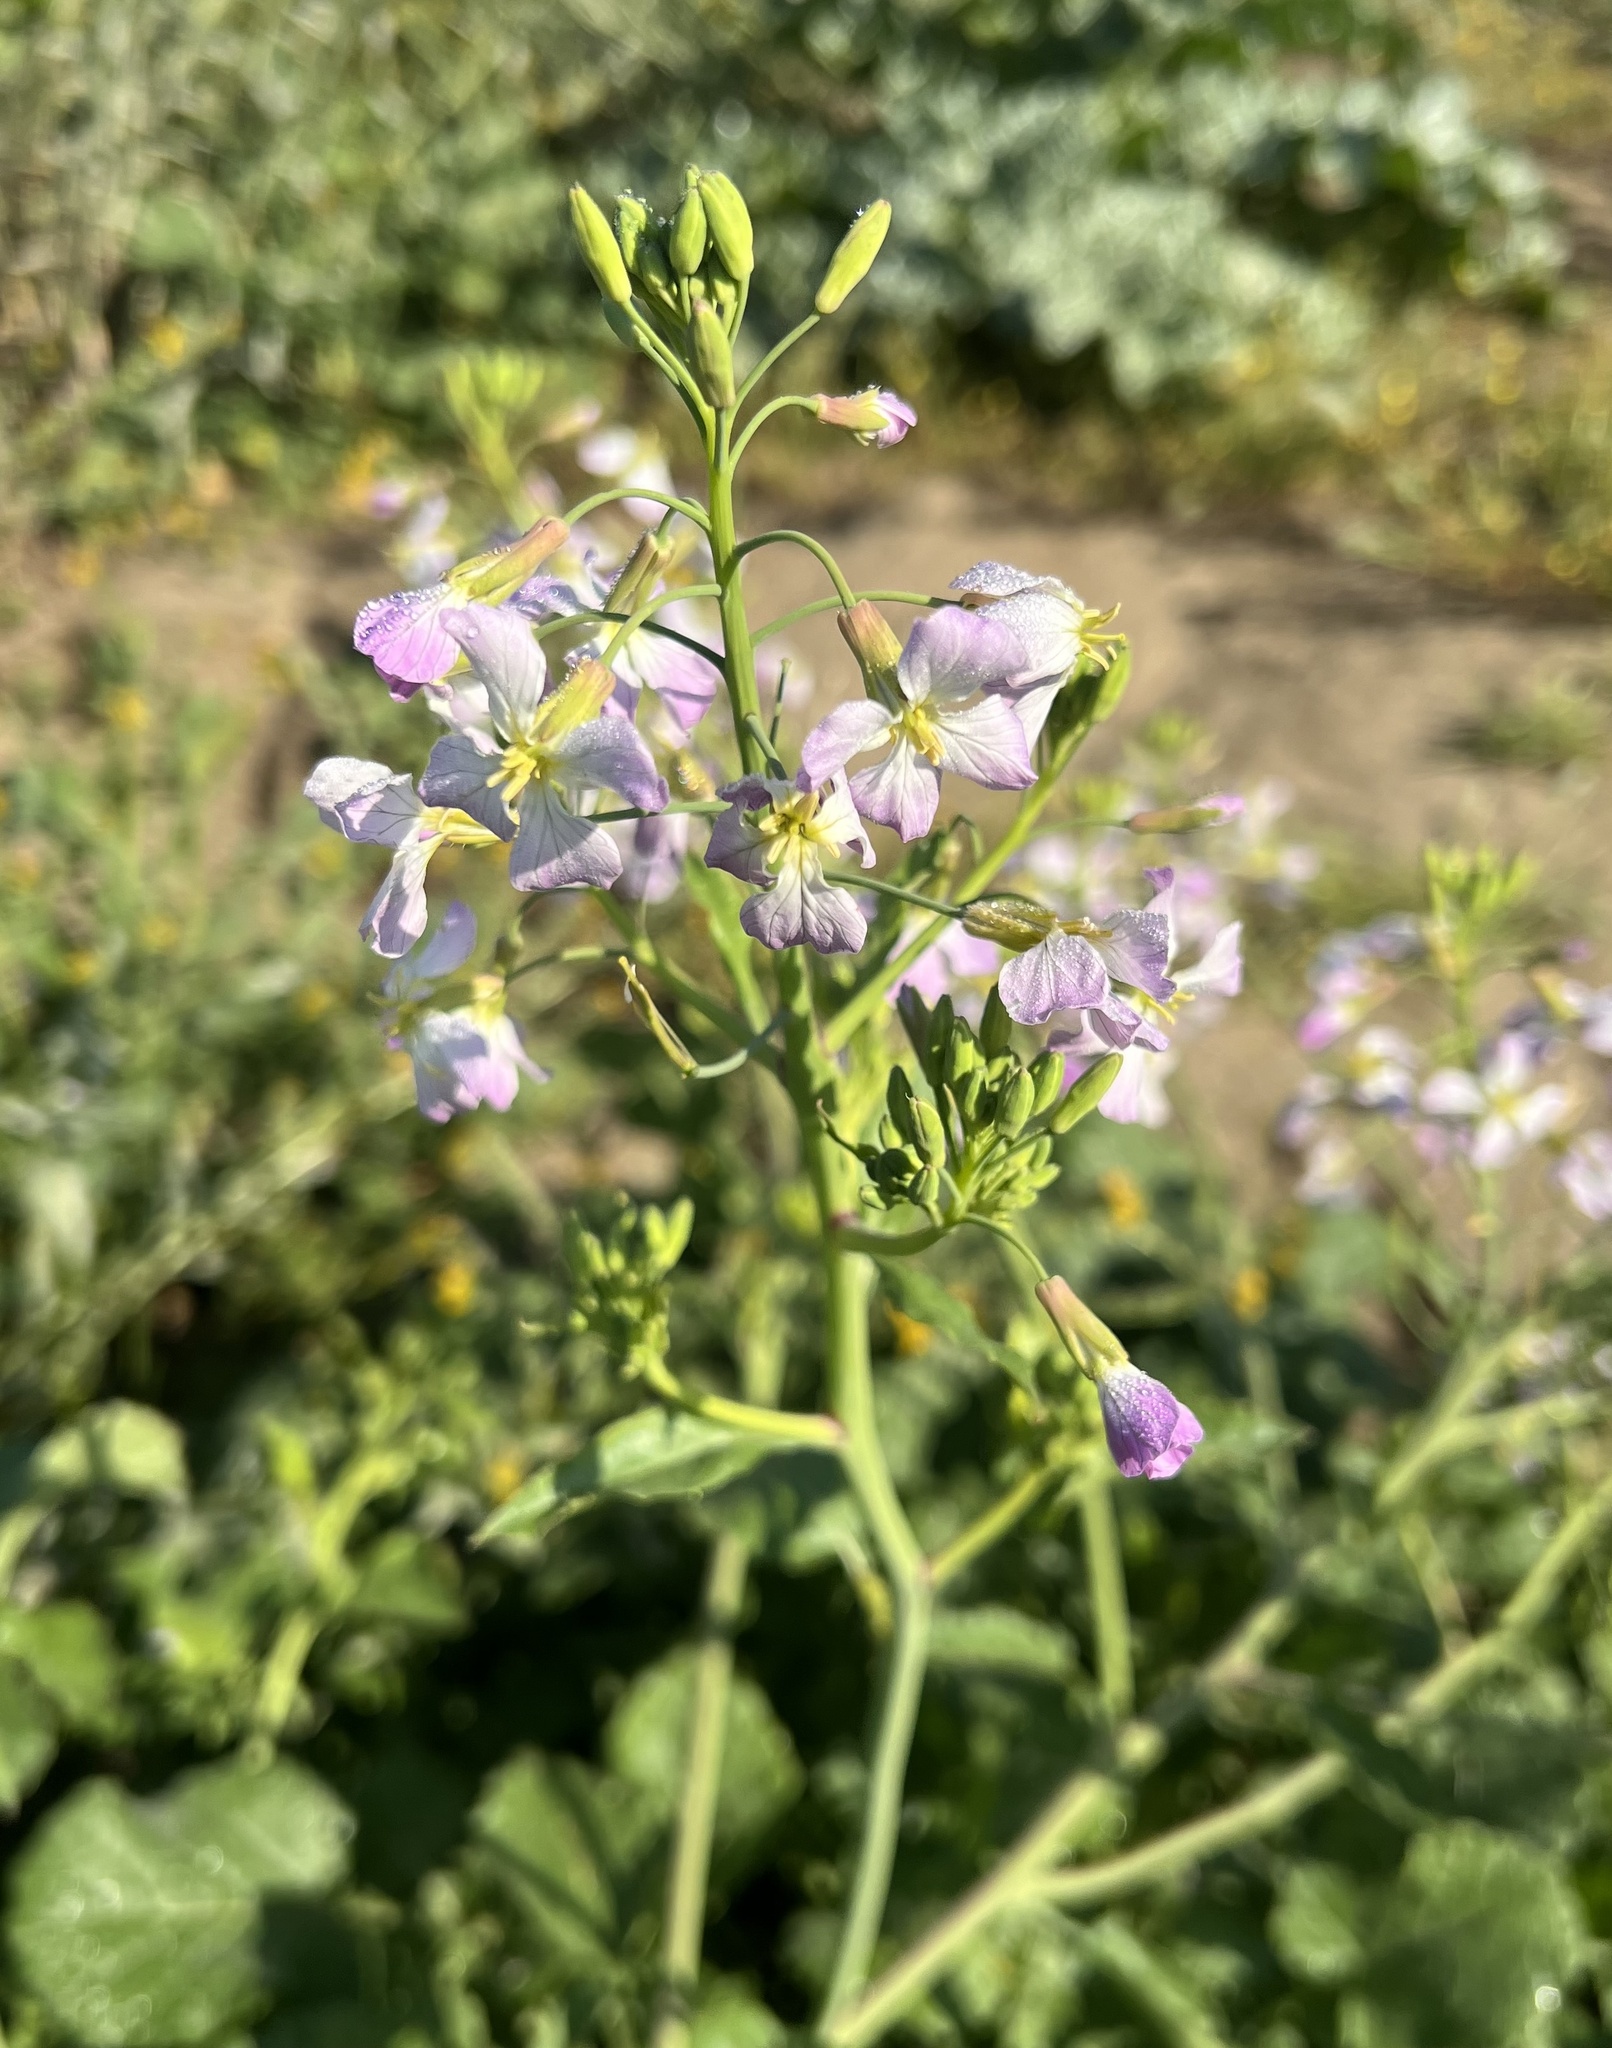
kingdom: Plantae
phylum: Tracheophyta
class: Magnoliopsida
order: Brassicales
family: Brassicaceae
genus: Raphanus
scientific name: Raphanus sativus
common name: Cultivated radish
